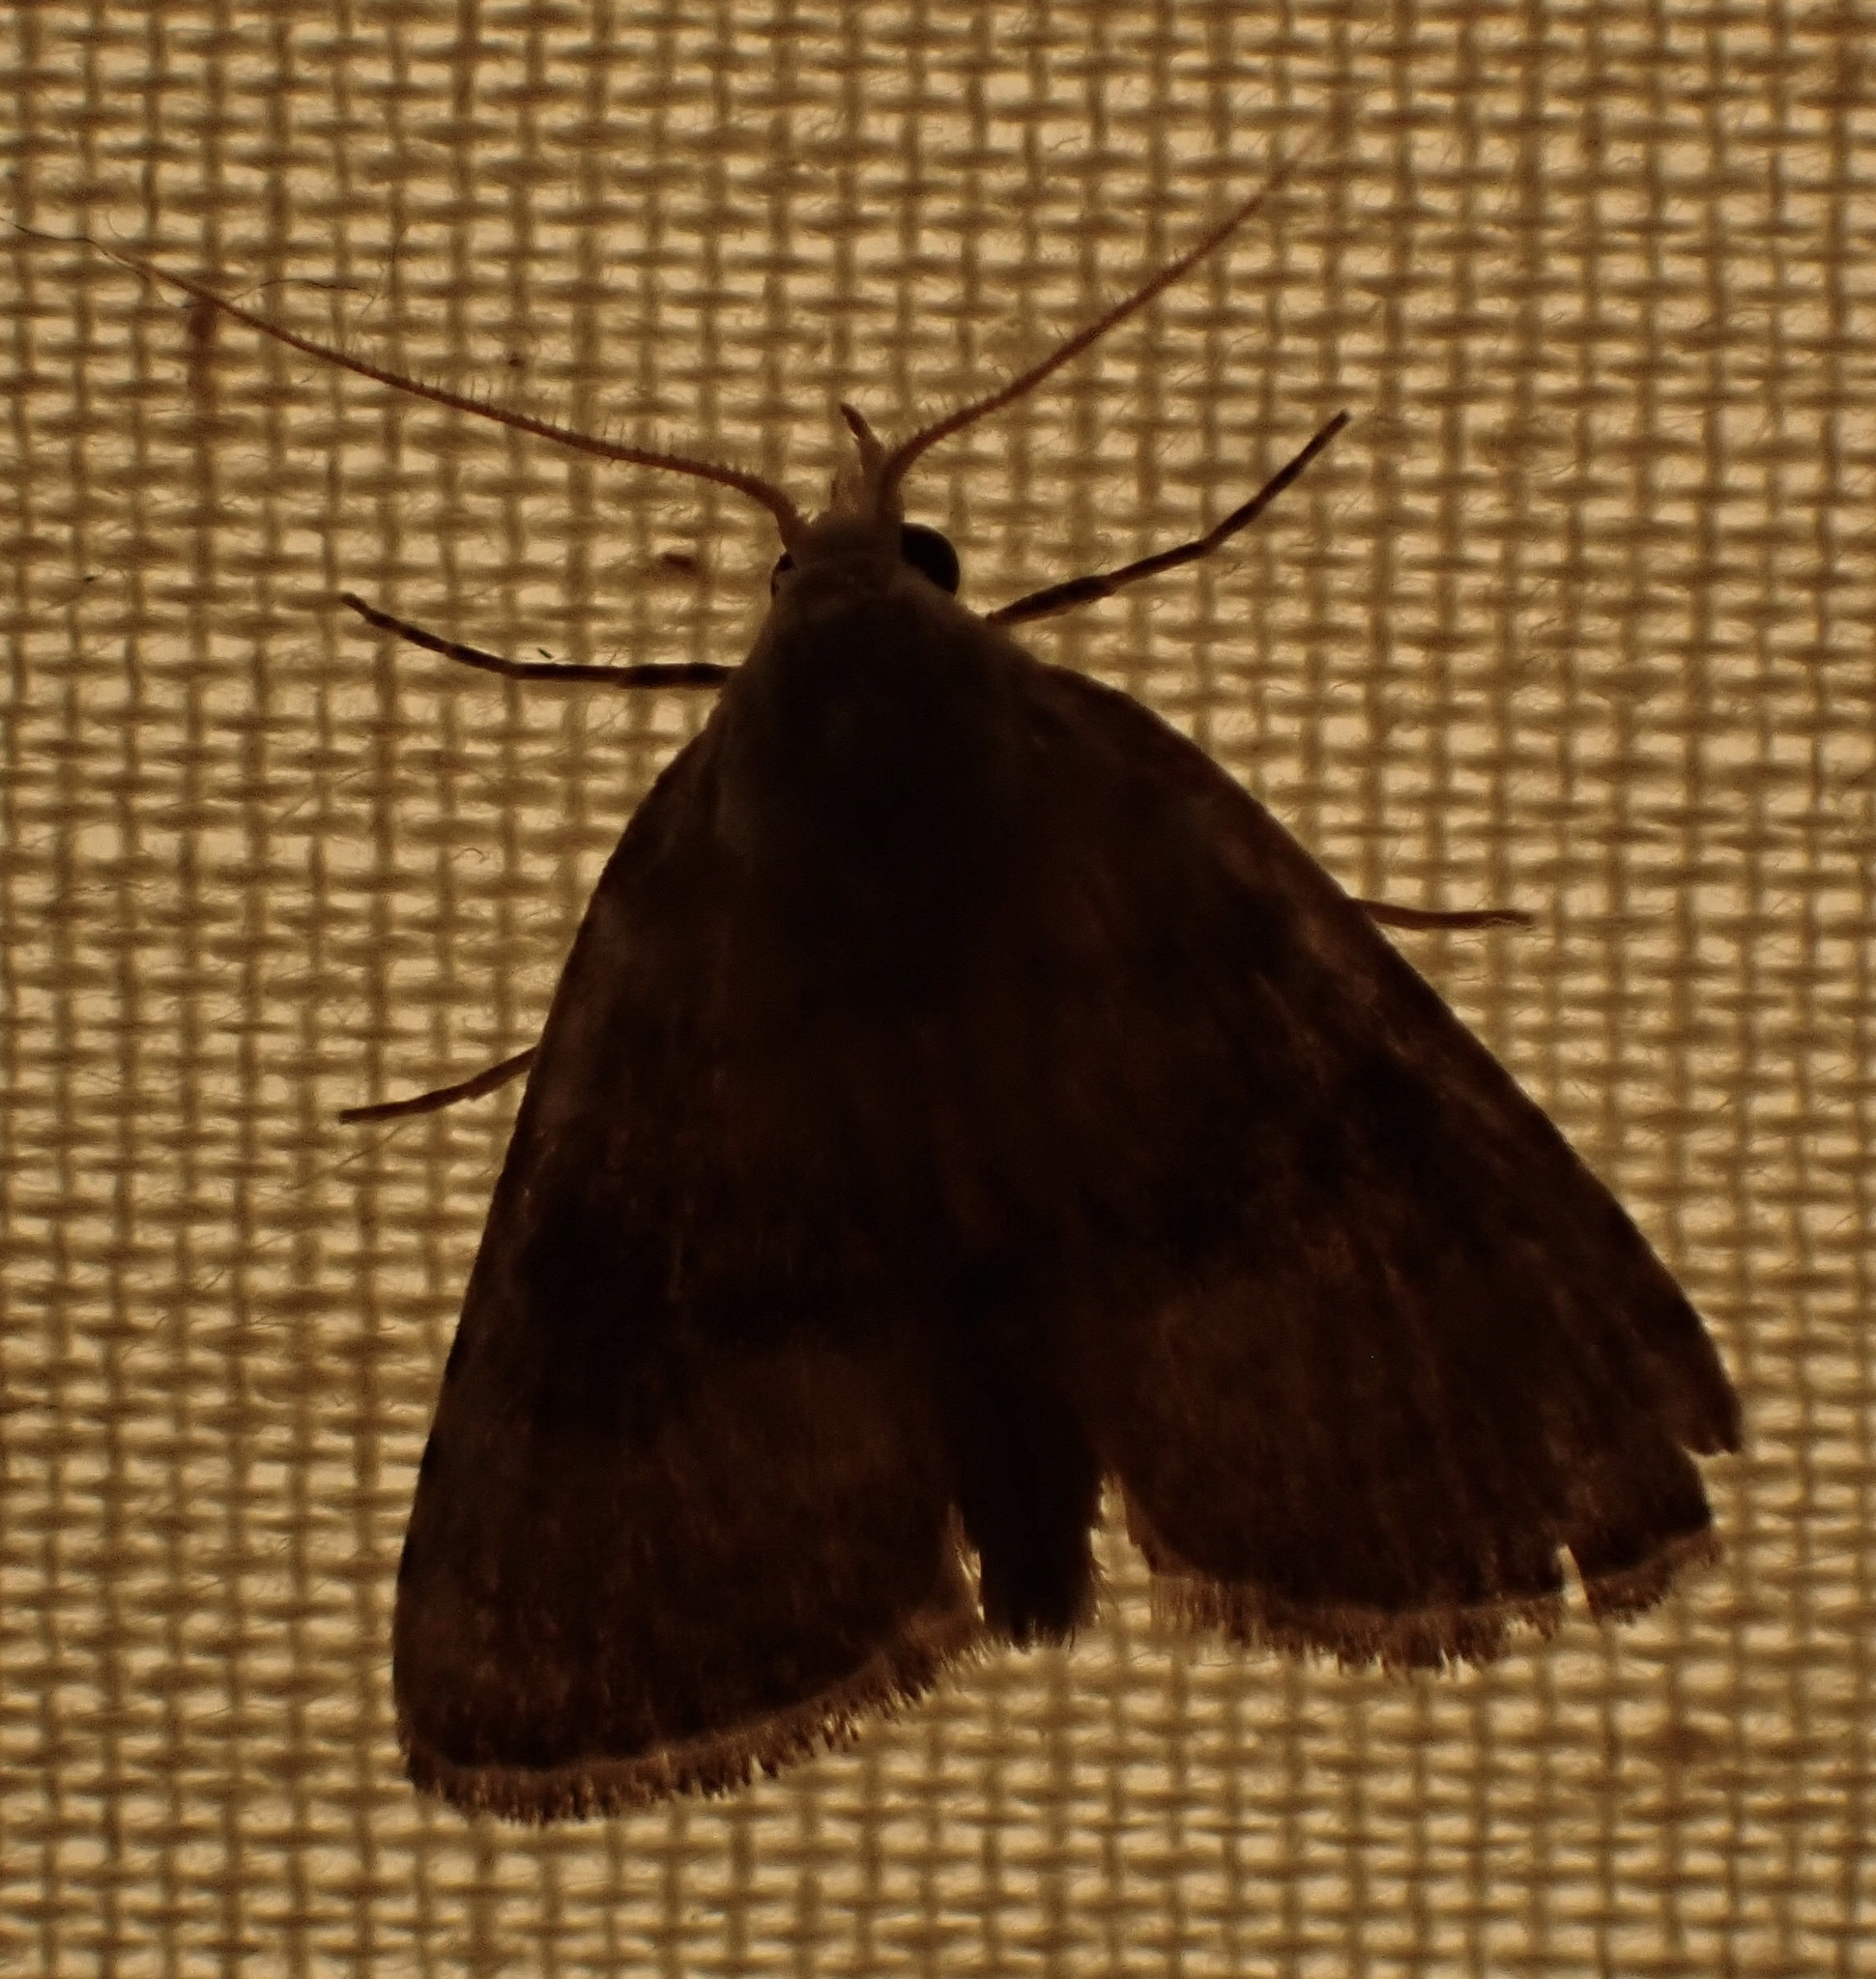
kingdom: Animalia
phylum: Arthropoda
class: Insecta
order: Lepidoptera
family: Nolidae
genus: Meganola
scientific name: Meganola albula
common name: Kent black arches
